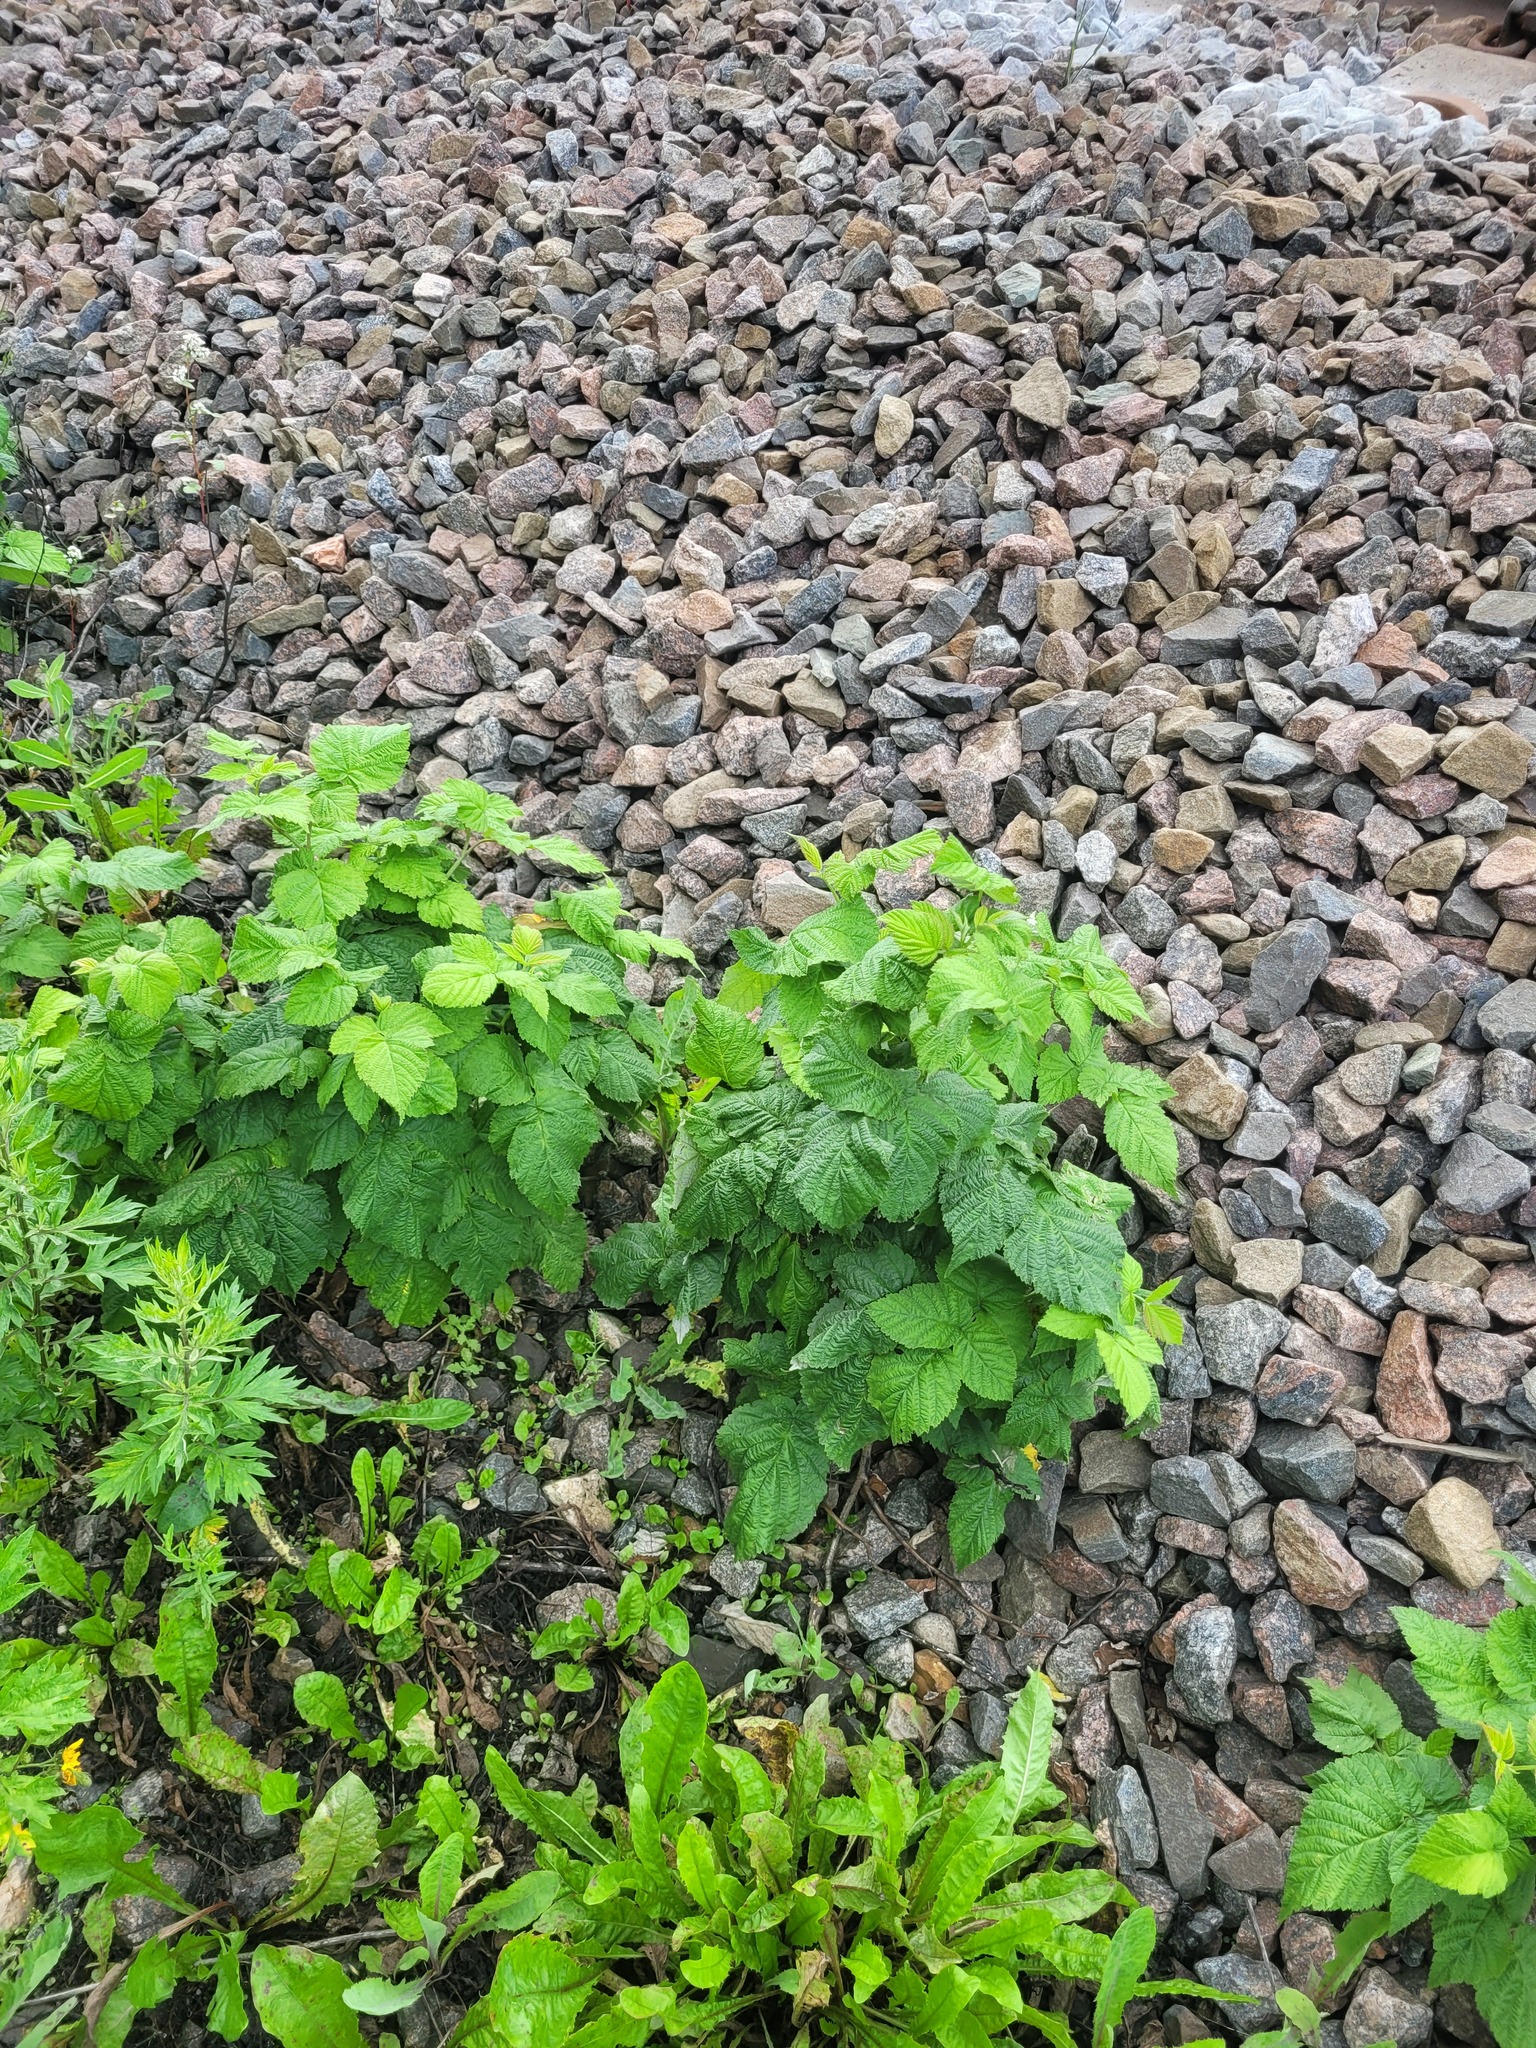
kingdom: Plantae
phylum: Tracheophyta
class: Magnoliopsida
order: Rosales
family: Rosaceae
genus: Rubus
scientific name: Rubus idaeus
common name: Raspberry
